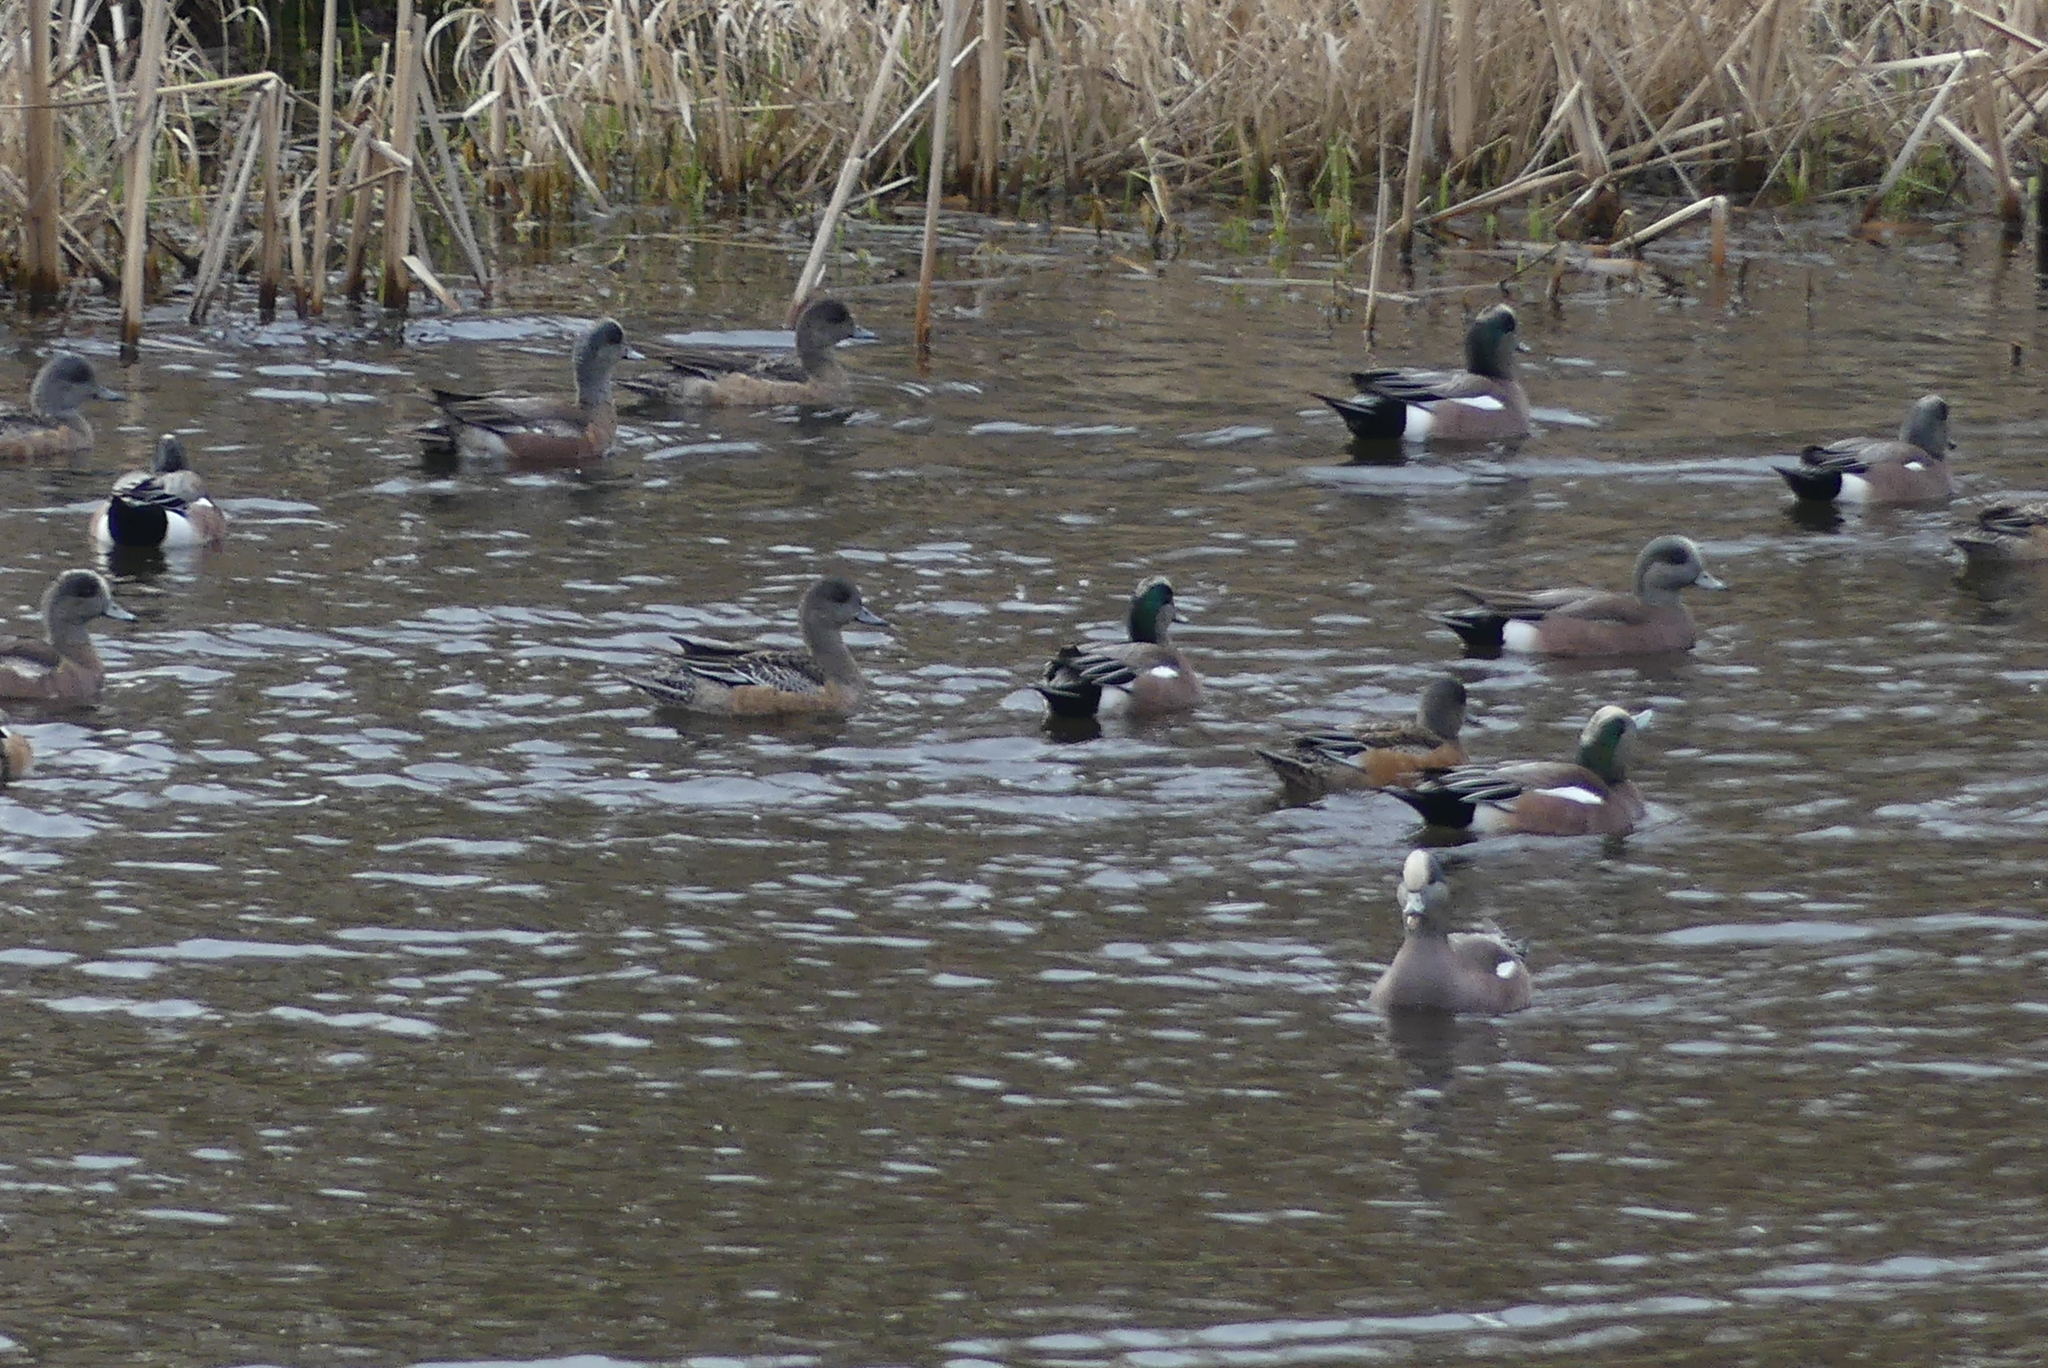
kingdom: Animalia
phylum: Chordata
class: Aves
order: Anseriformes
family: Anatidae
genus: Mareca
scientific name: Mareca americana
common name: American wigeon
